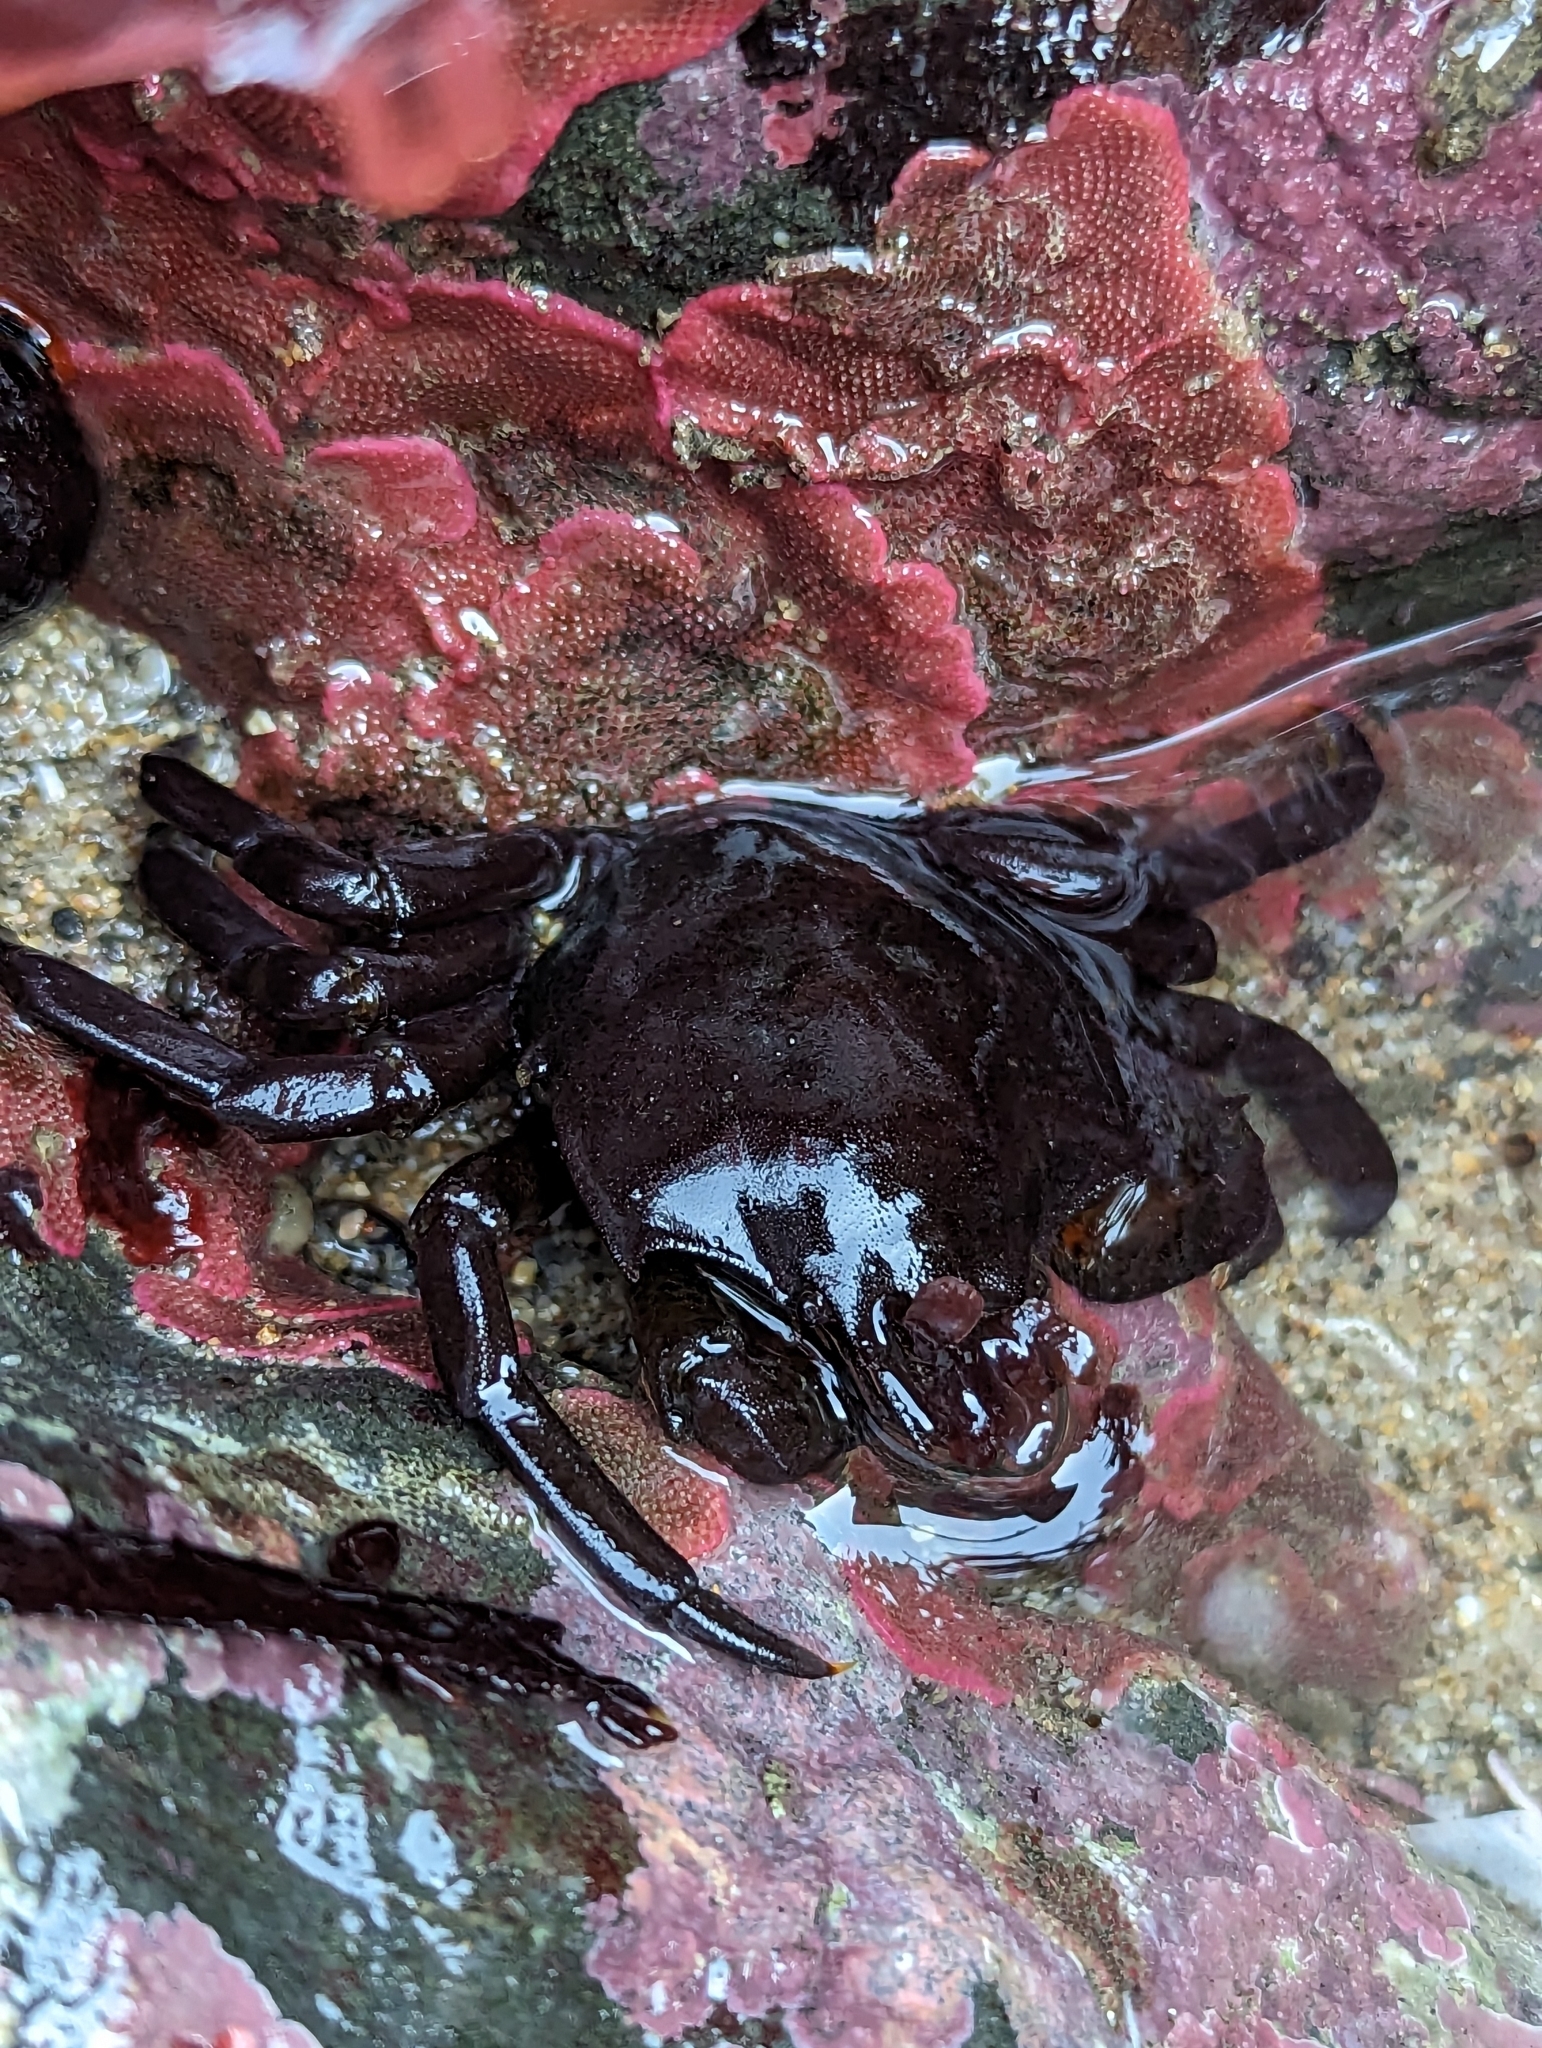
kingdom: Animalia
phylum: Arthropoda
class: Malacostraca
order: Decapoda
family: Epialtidae
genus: Pugettia
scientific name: Pugettia producta
